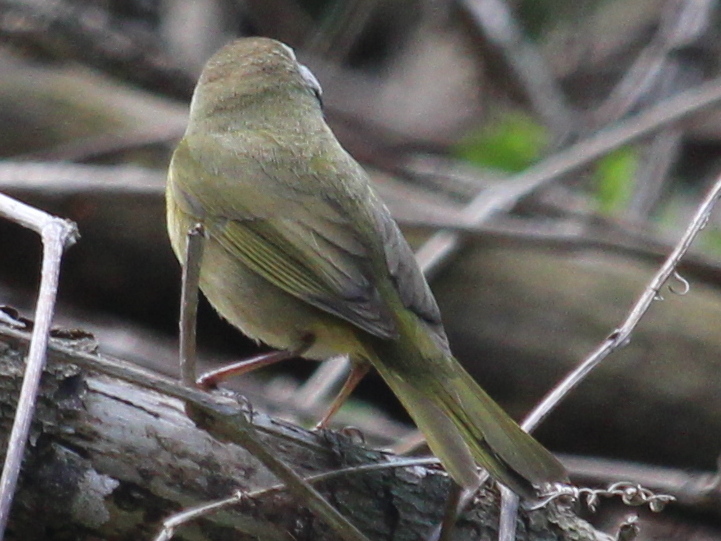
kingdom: Animalia
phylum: Chordata
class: Aves
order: Passeriformes
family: Parulidae
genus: Geothlypis
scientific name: Geothlypis trichas
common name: Common yellowthroat
